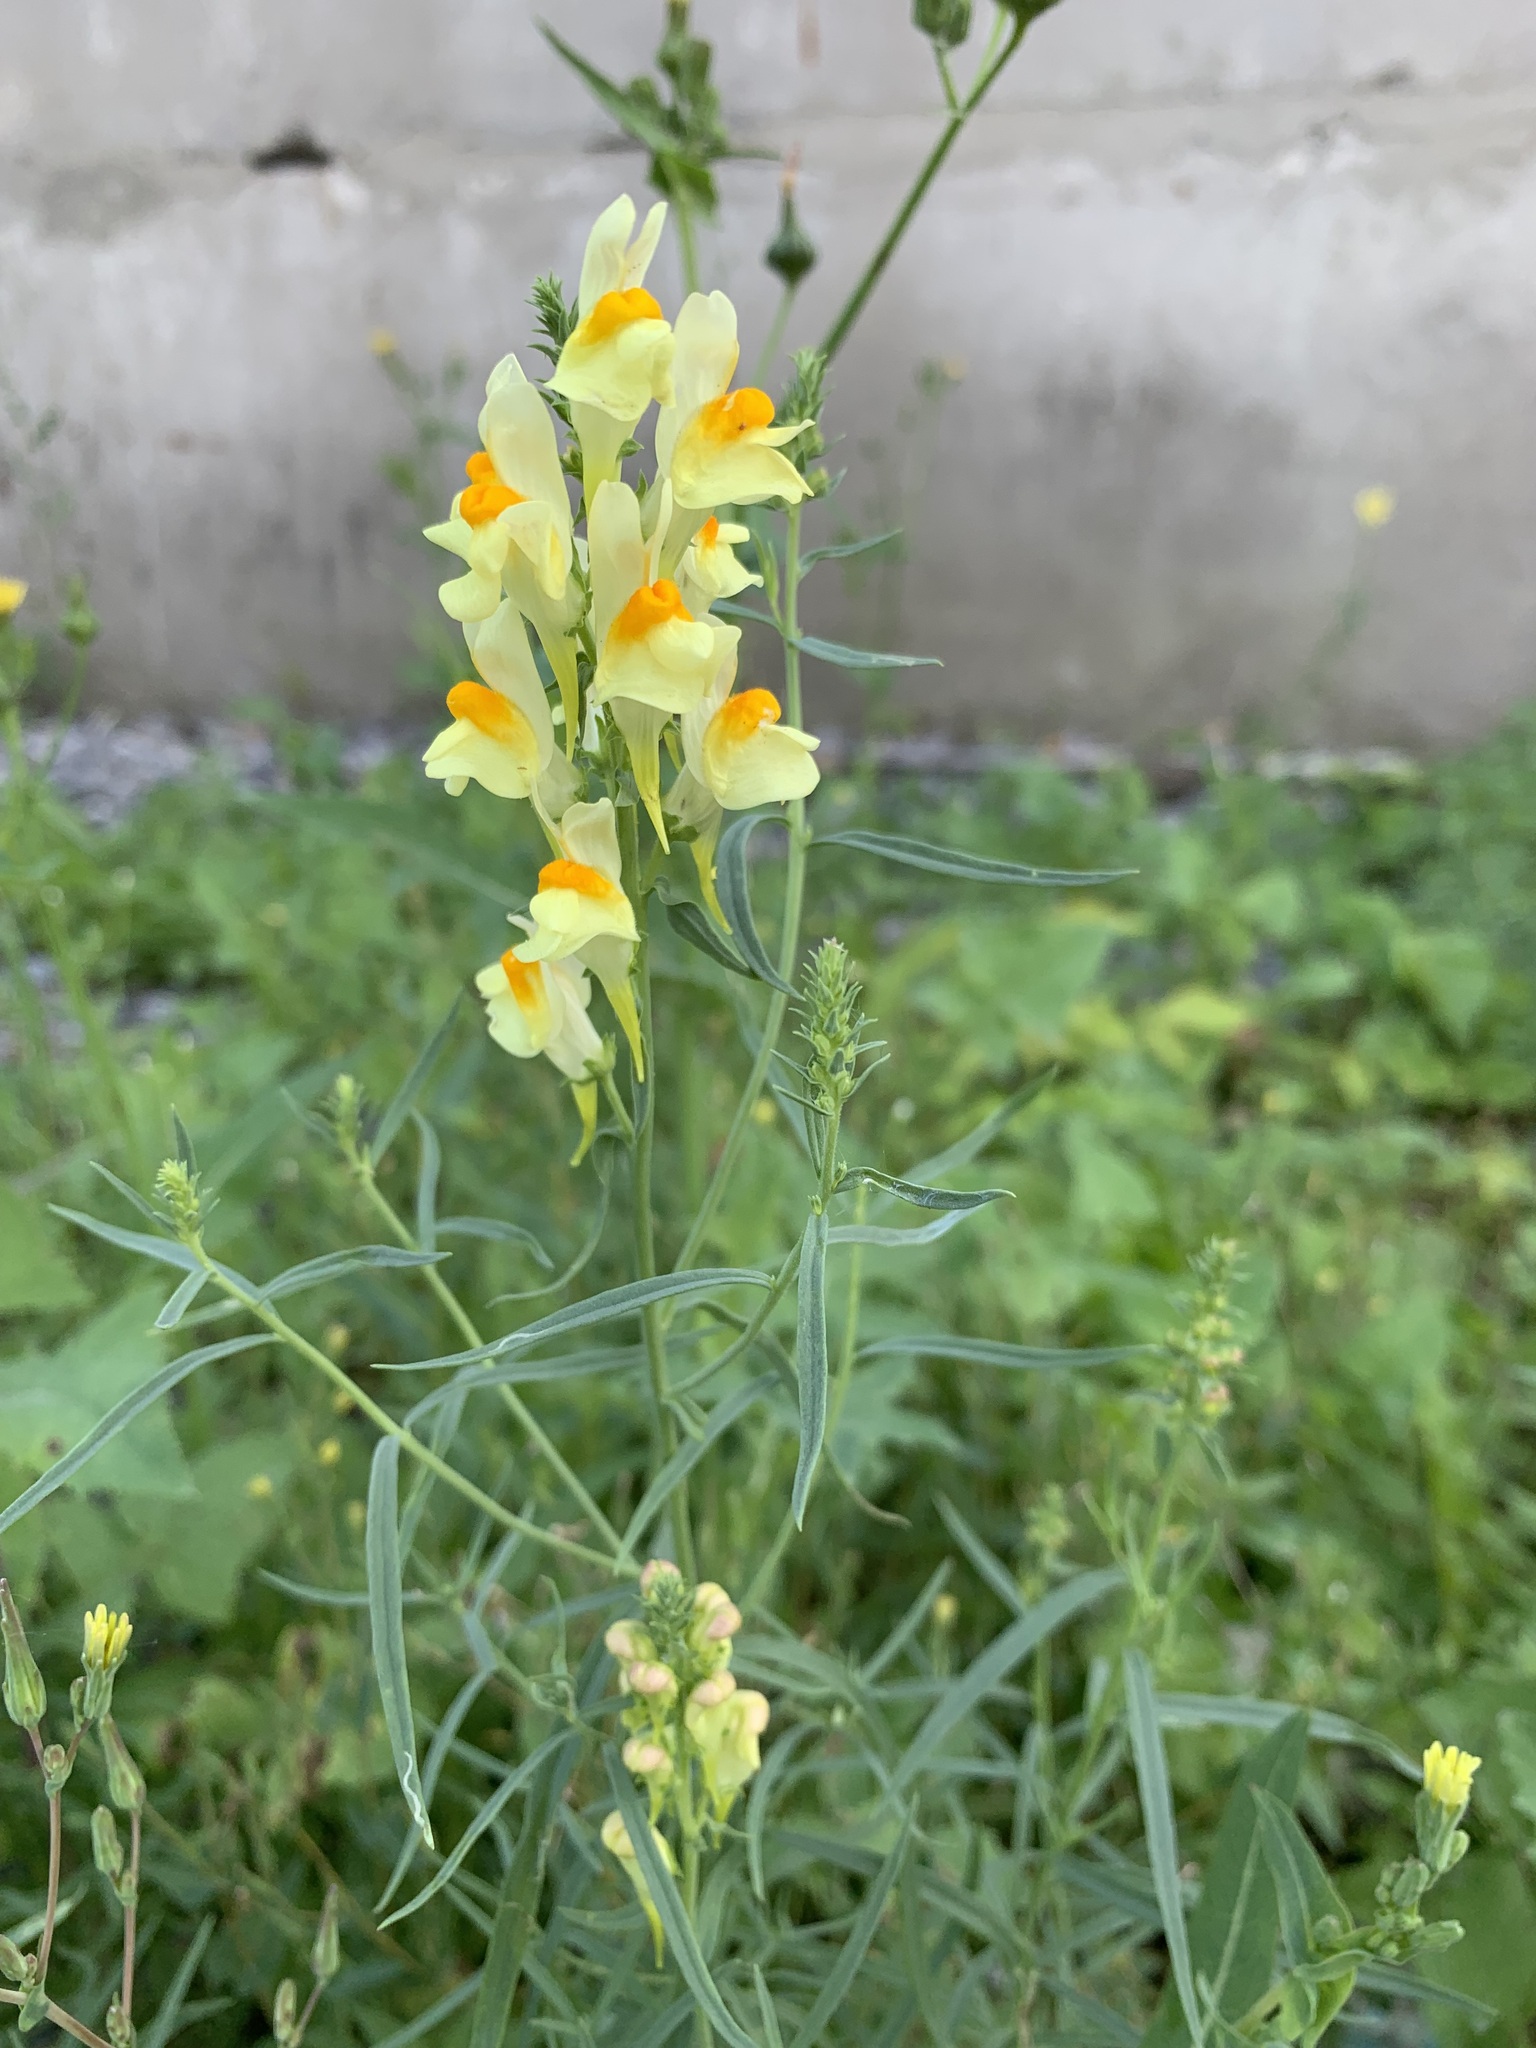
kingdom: Plantae
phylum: Tracheophyta
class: Magnoliopsida
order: Lamiales
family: Plantaginaceae
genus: Linaria
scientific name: Linaria vulgaris
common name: Butter and eggs
